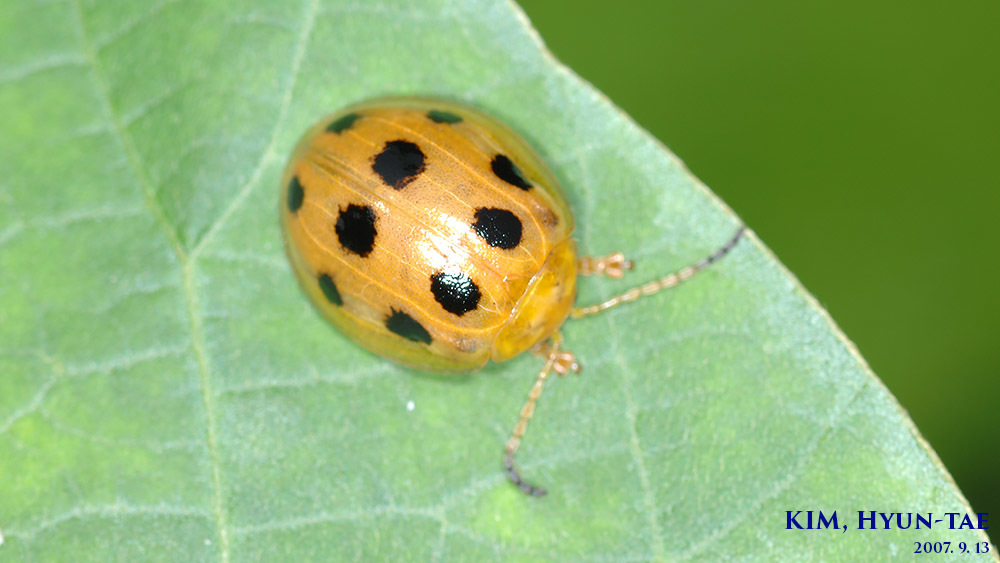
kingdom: Animalia
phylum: Arthropoda
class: Insecta
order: Coleoptera
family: Chrysomelidae
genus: Oides
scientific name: Oides decempunctata
